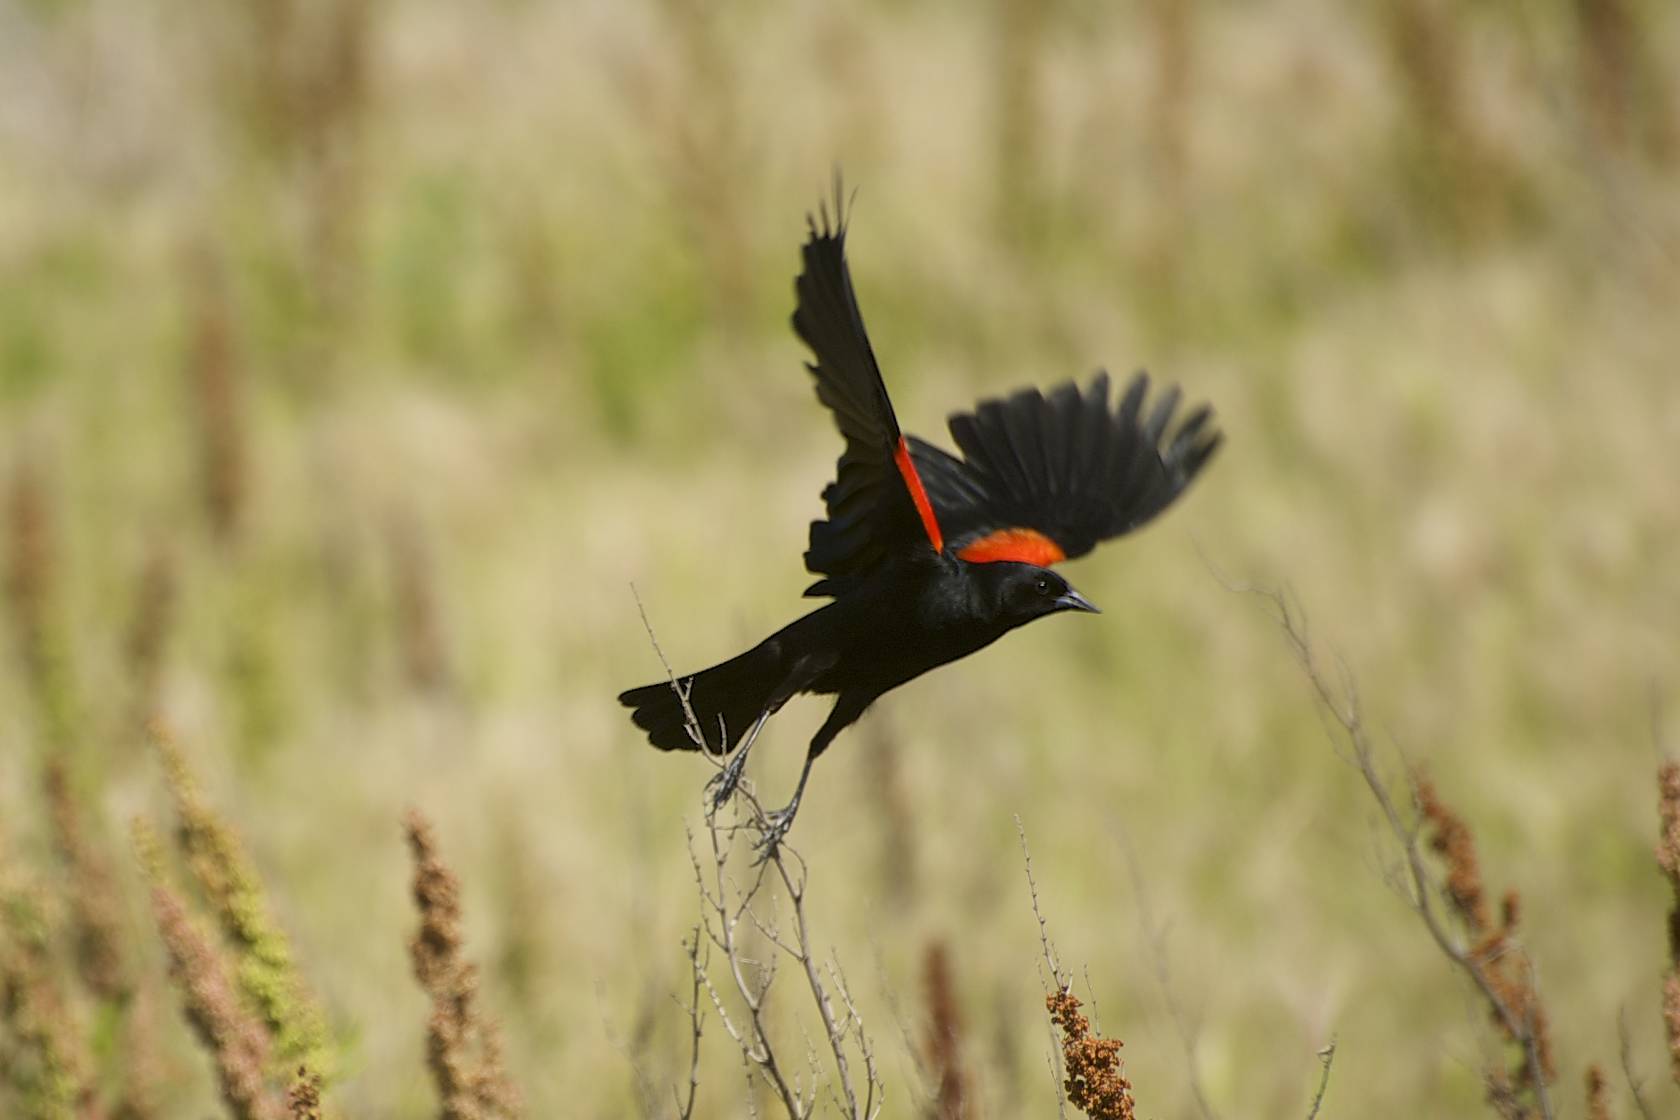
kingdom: Animalia
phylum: Chordata
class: Aves
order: Passeriformes
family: Icteridae
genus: Agelaius
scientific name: Agelaius phoeniceus
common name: Red-winged blackbird
